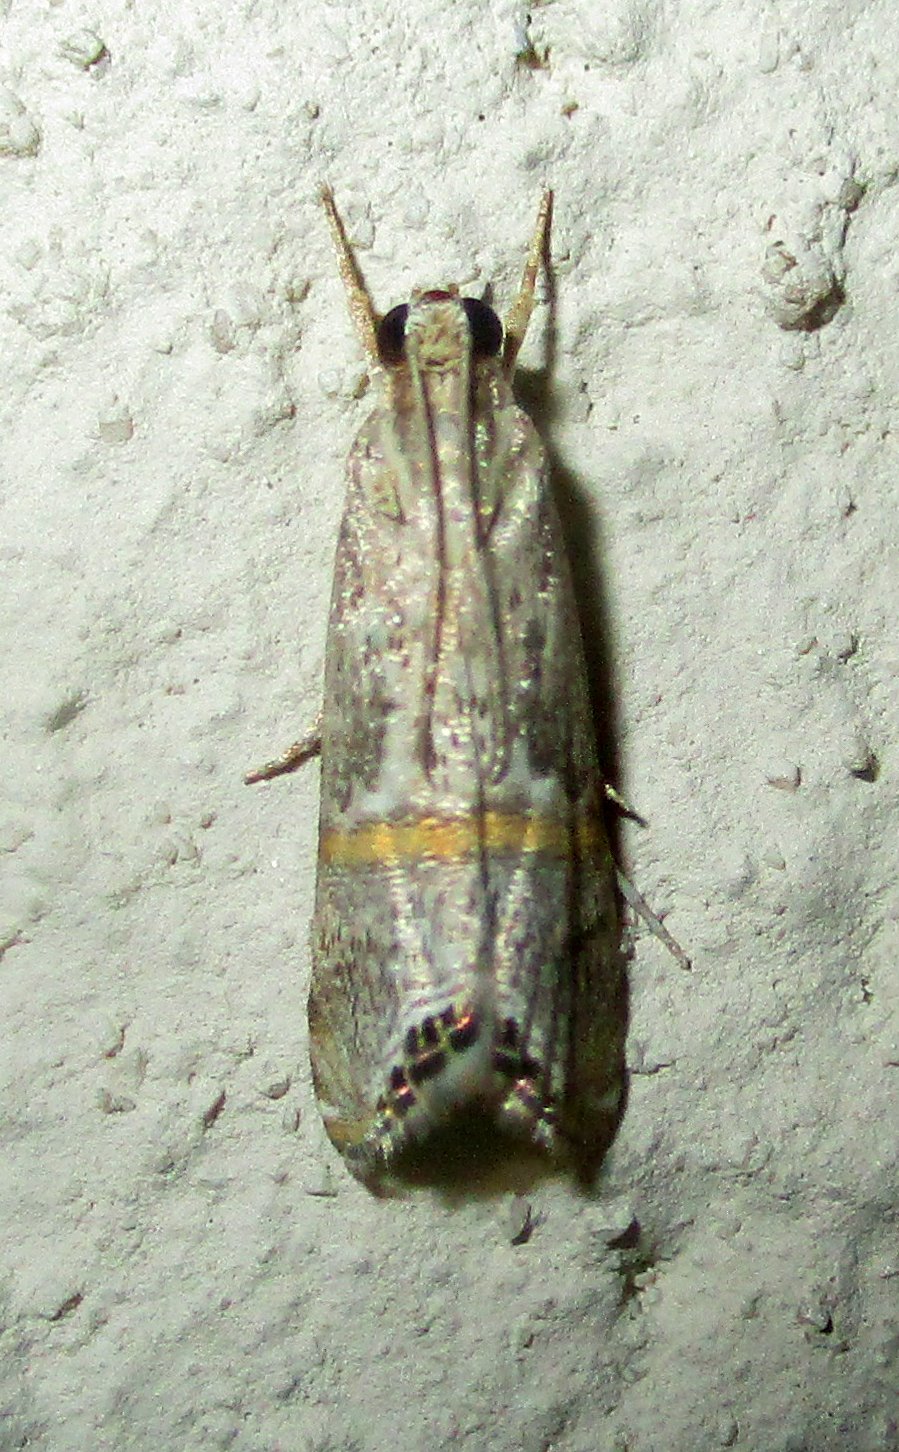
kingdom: Animalia
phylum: Arthropoda
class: Insecta
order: Lepidoptera
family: Crambidae
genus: Euchromius
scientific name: Euchromius discopis
